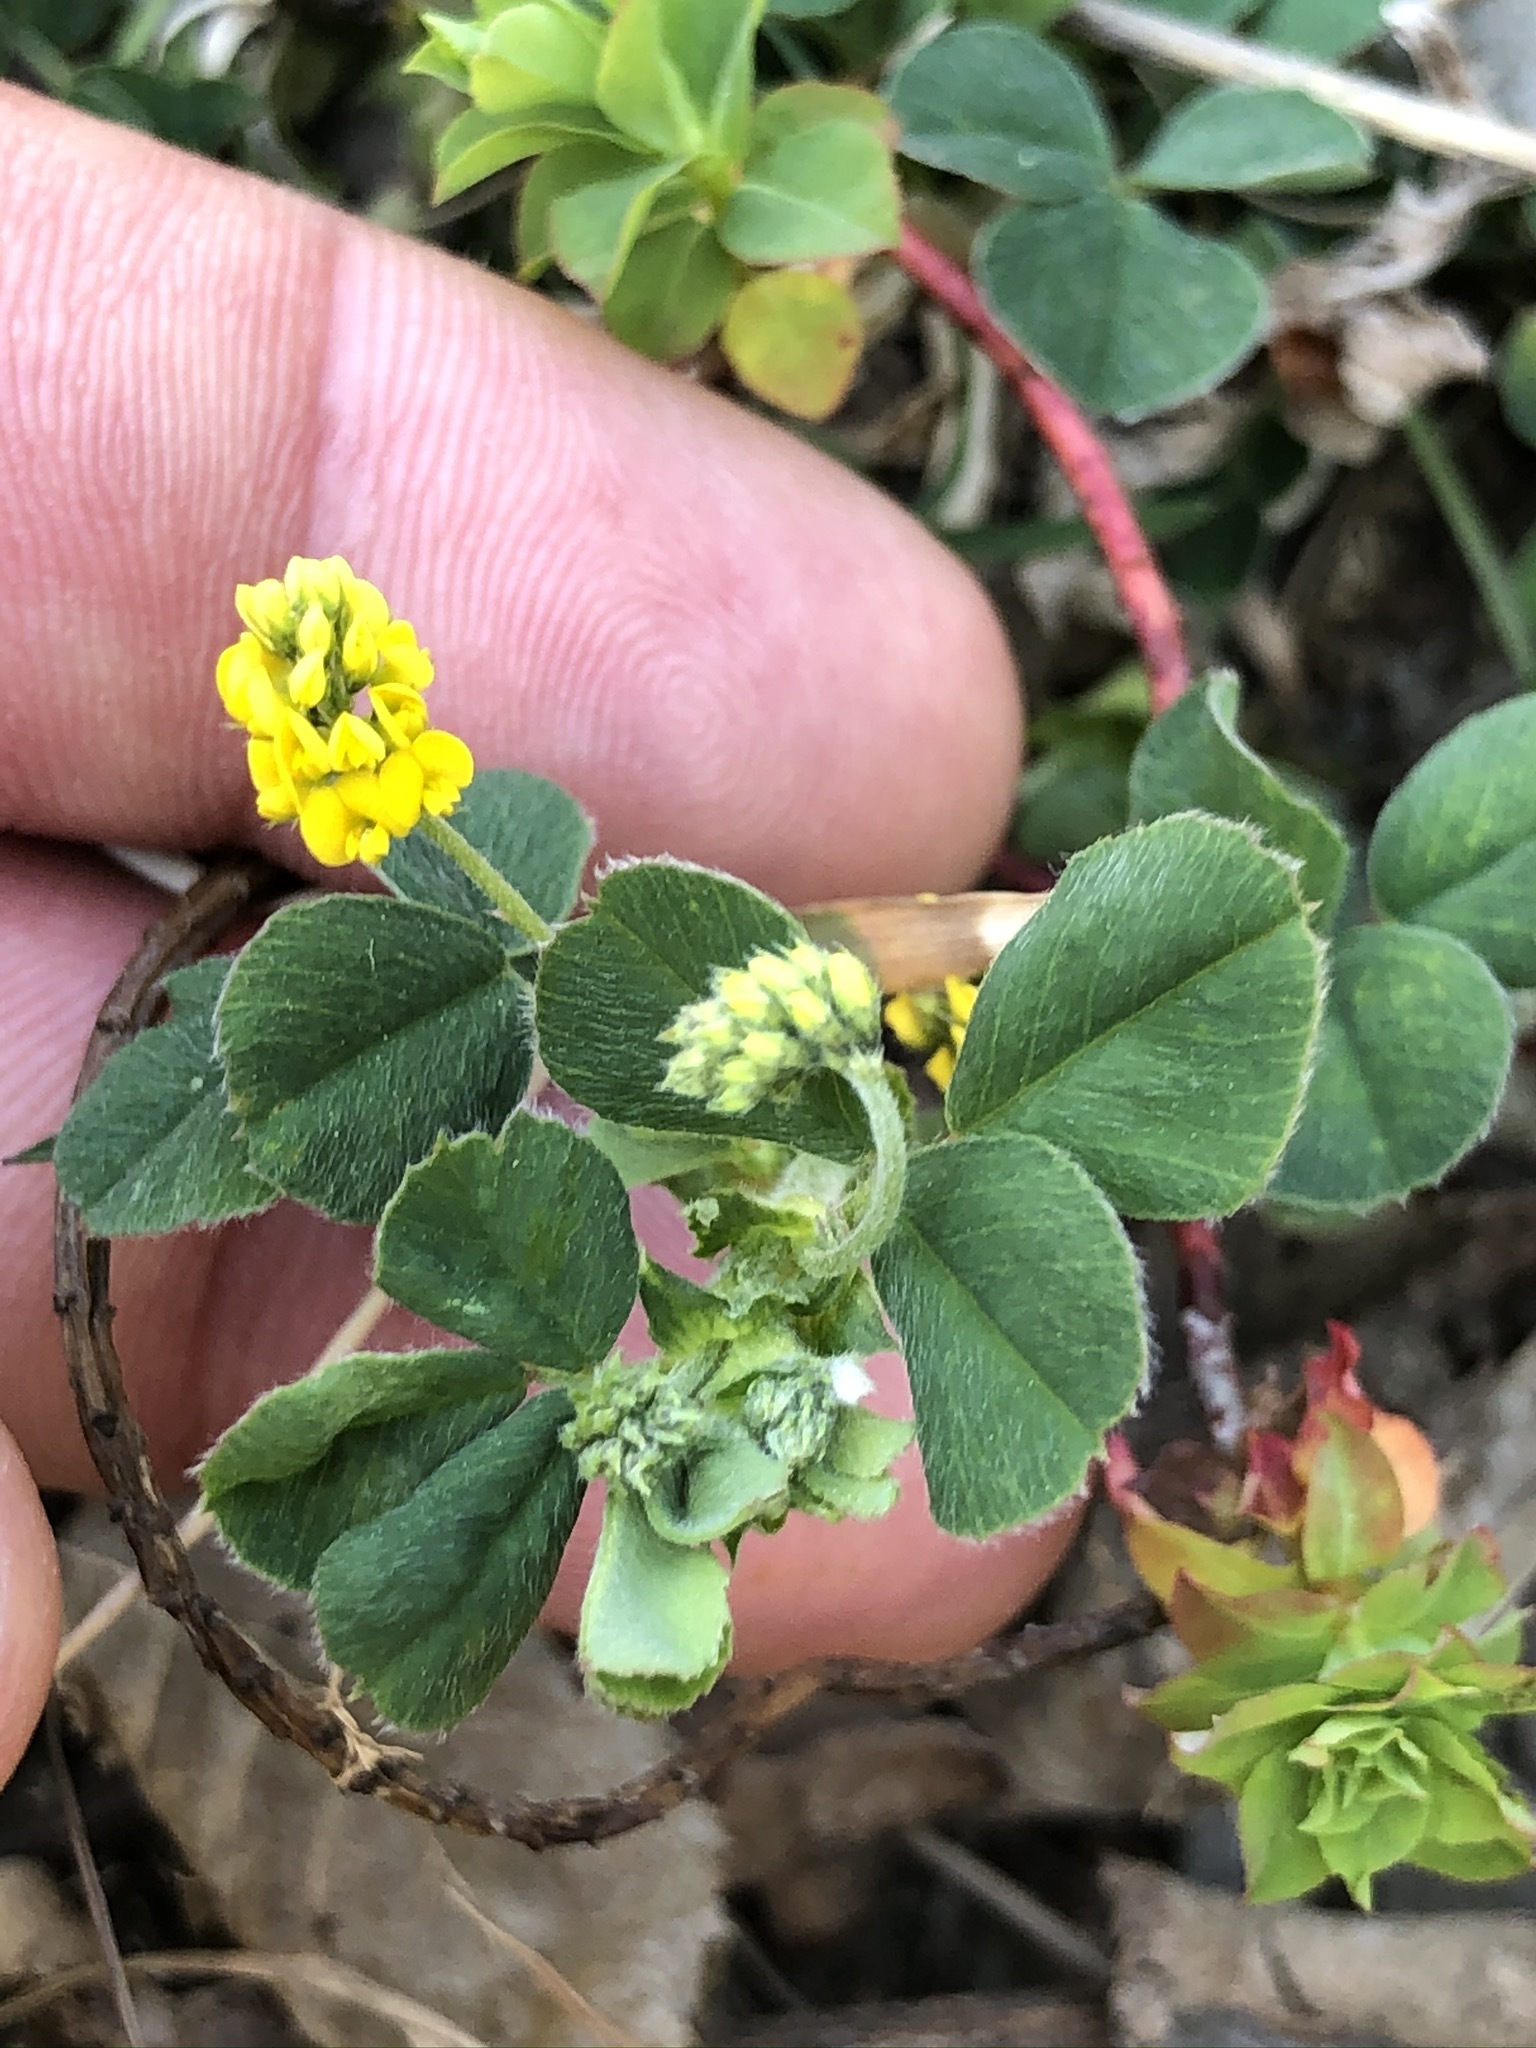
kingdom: Plantae
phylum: Tracheophyta
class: Magnoliopsida
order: Fabales
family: Fabaceae
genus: Medicago
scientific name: Medicago lupulina
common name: Black medick
